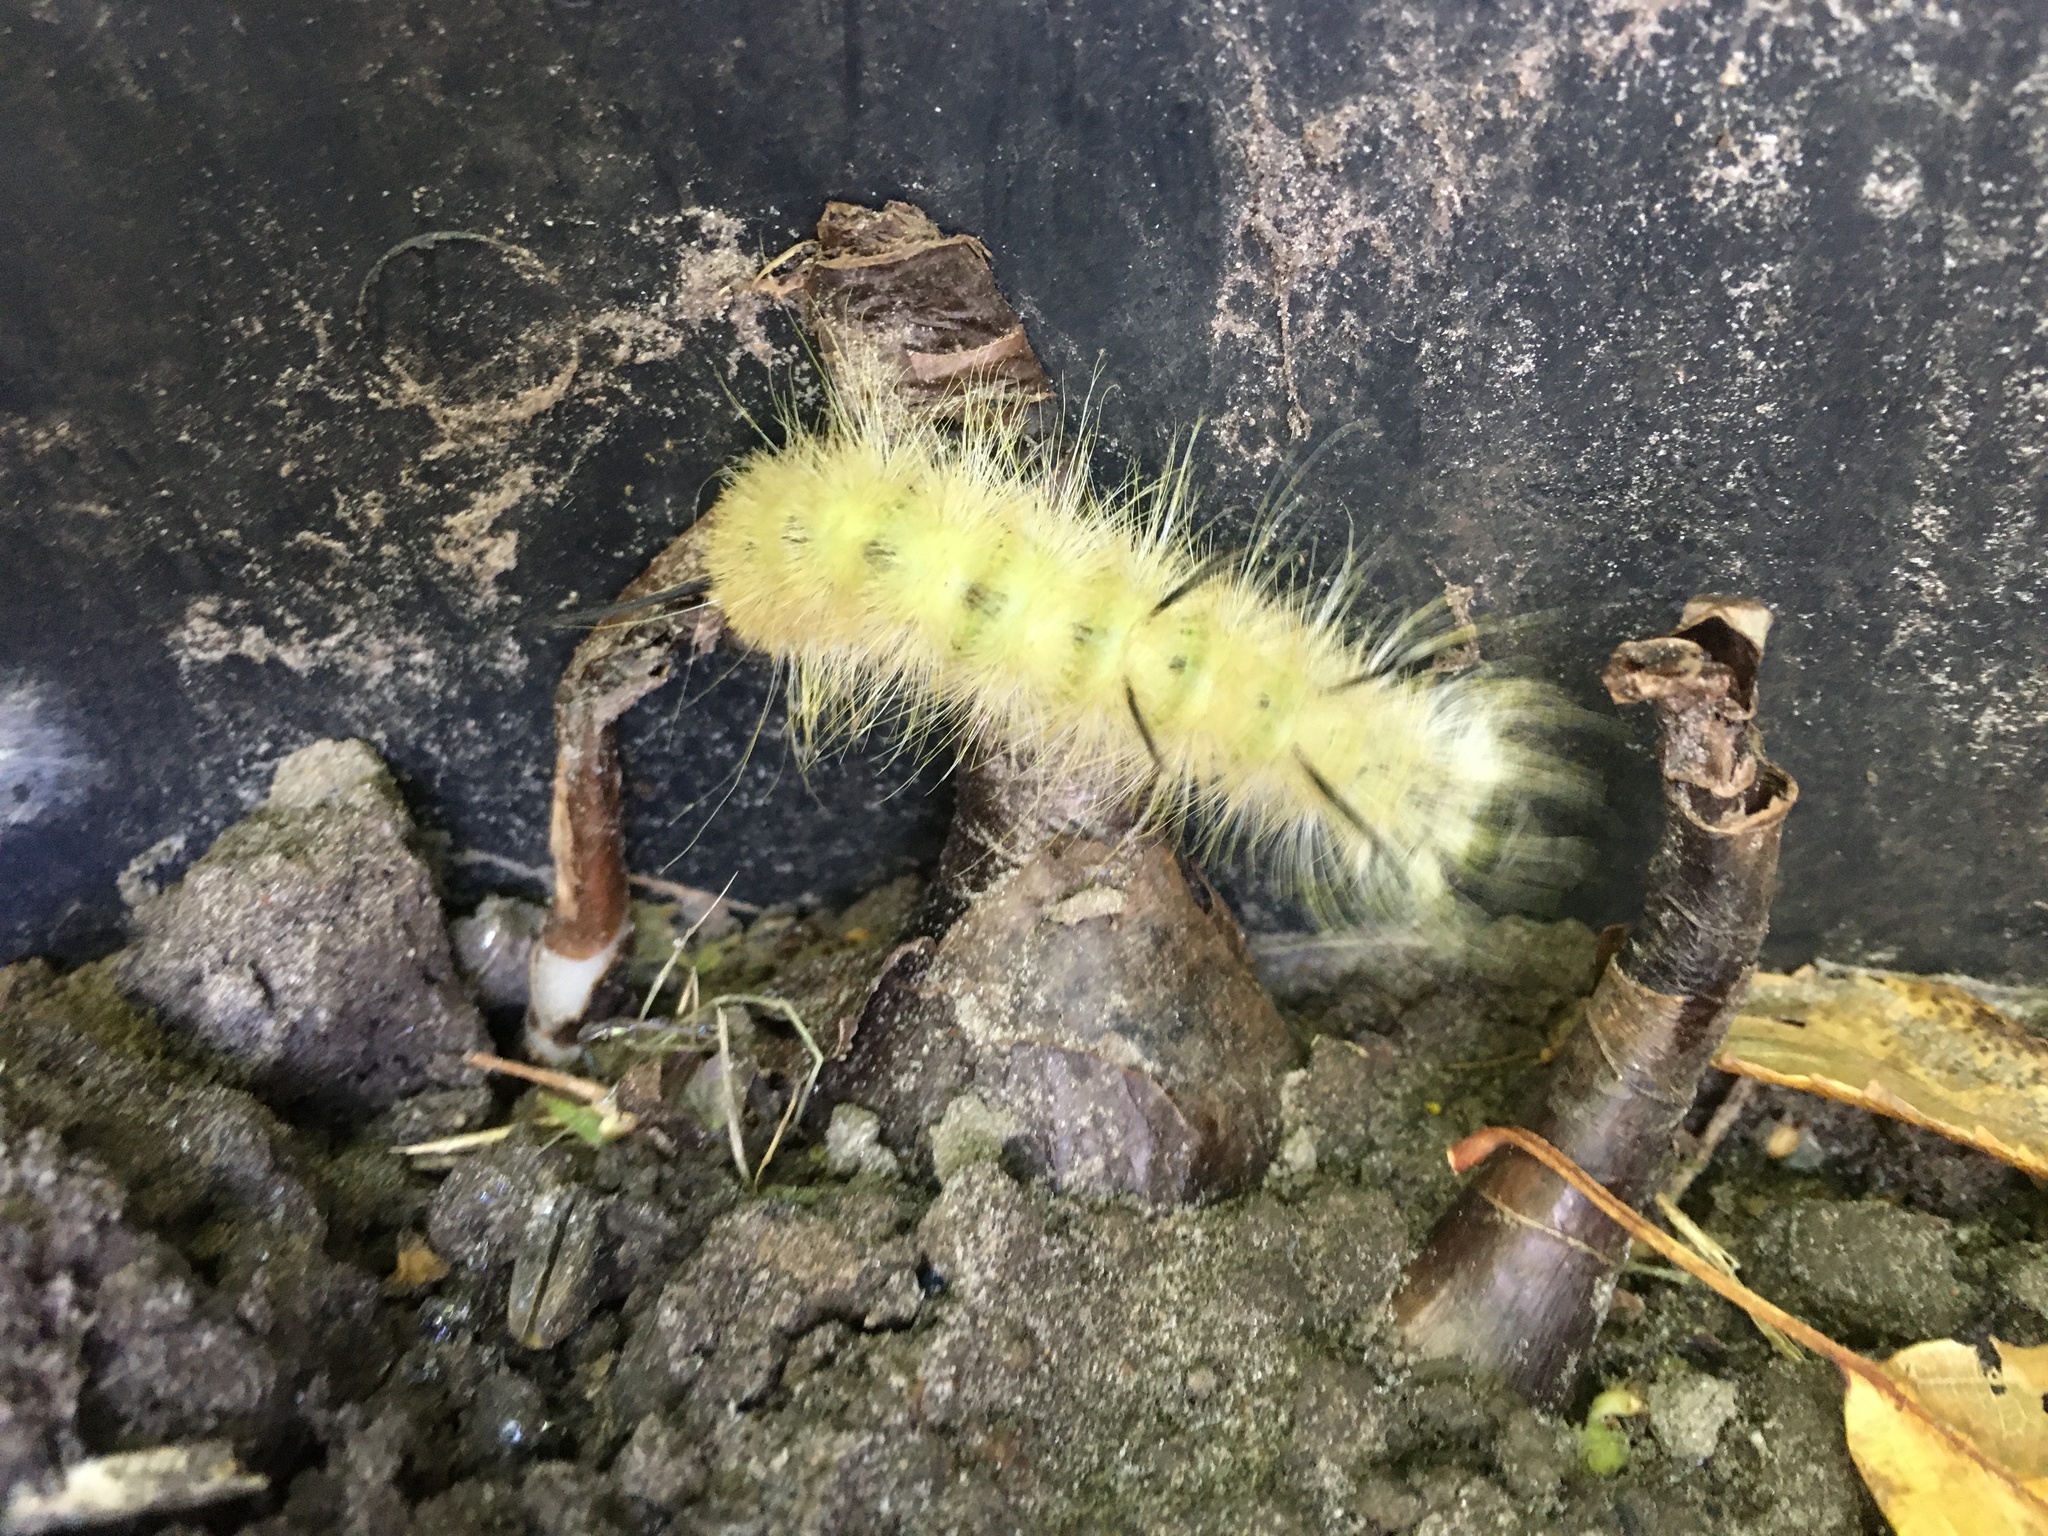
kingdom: Animalia
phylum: Arthropoda
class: Insecta
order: Lepidoptera
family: Noctuidae
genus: Acronicta
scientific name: Acronicta americana
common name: American dagger
